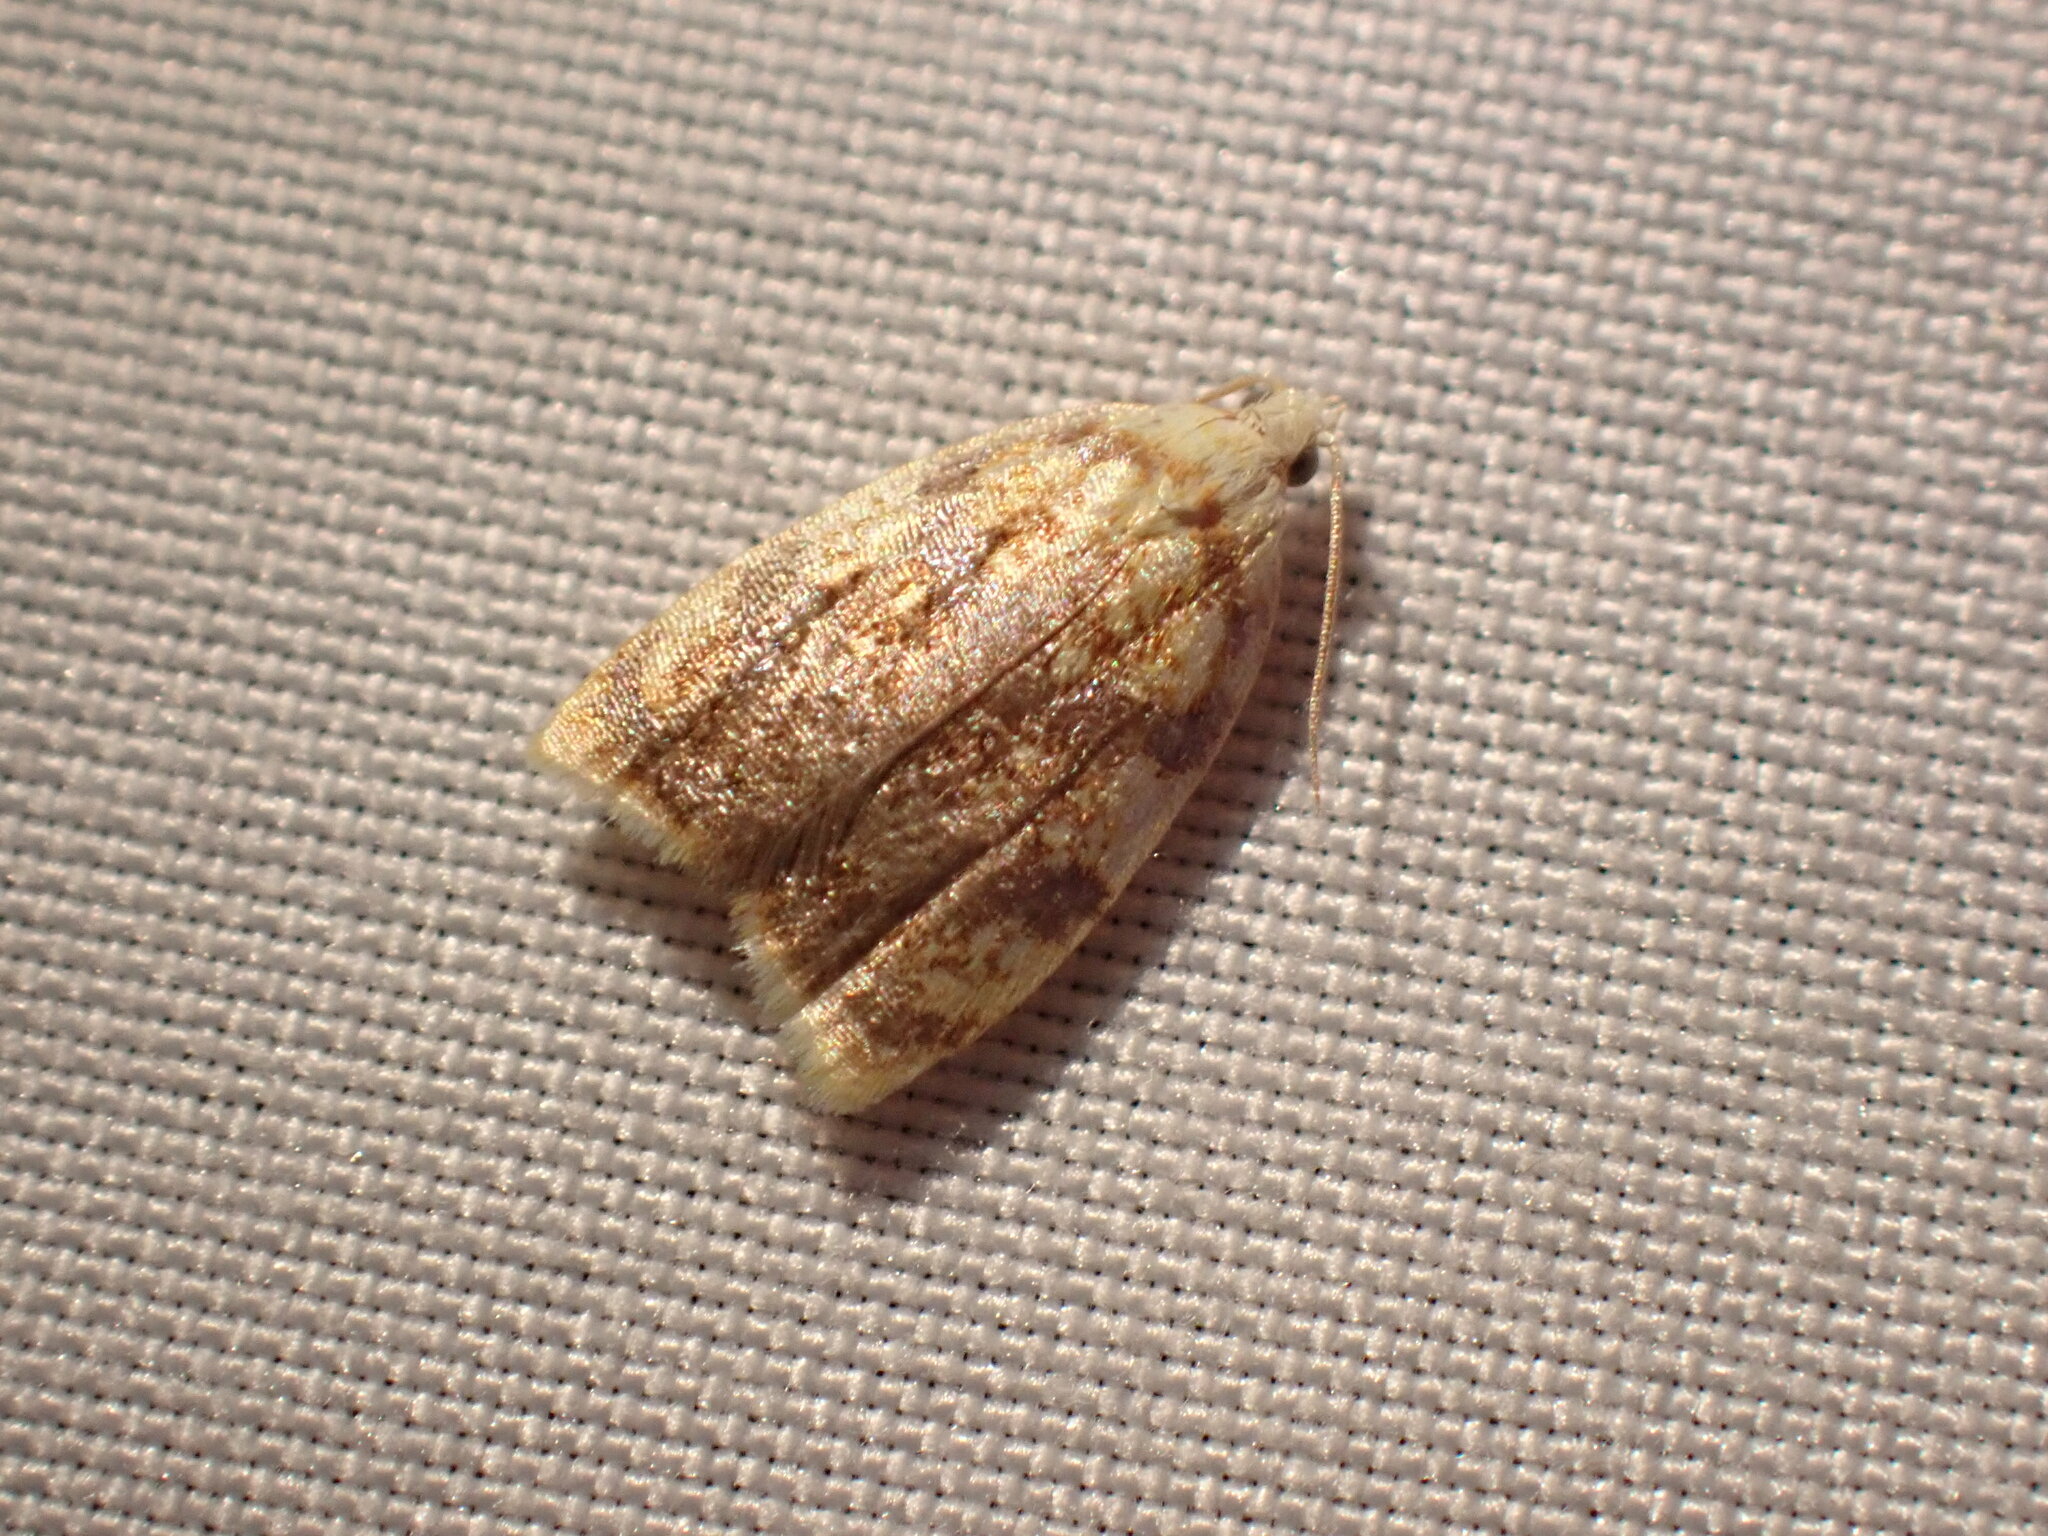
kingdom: Animalia
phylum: Arthropoda
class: Insecta
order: Lepidoptera
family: Tortricidae
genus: Acleris
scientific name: Acleris albicomana
